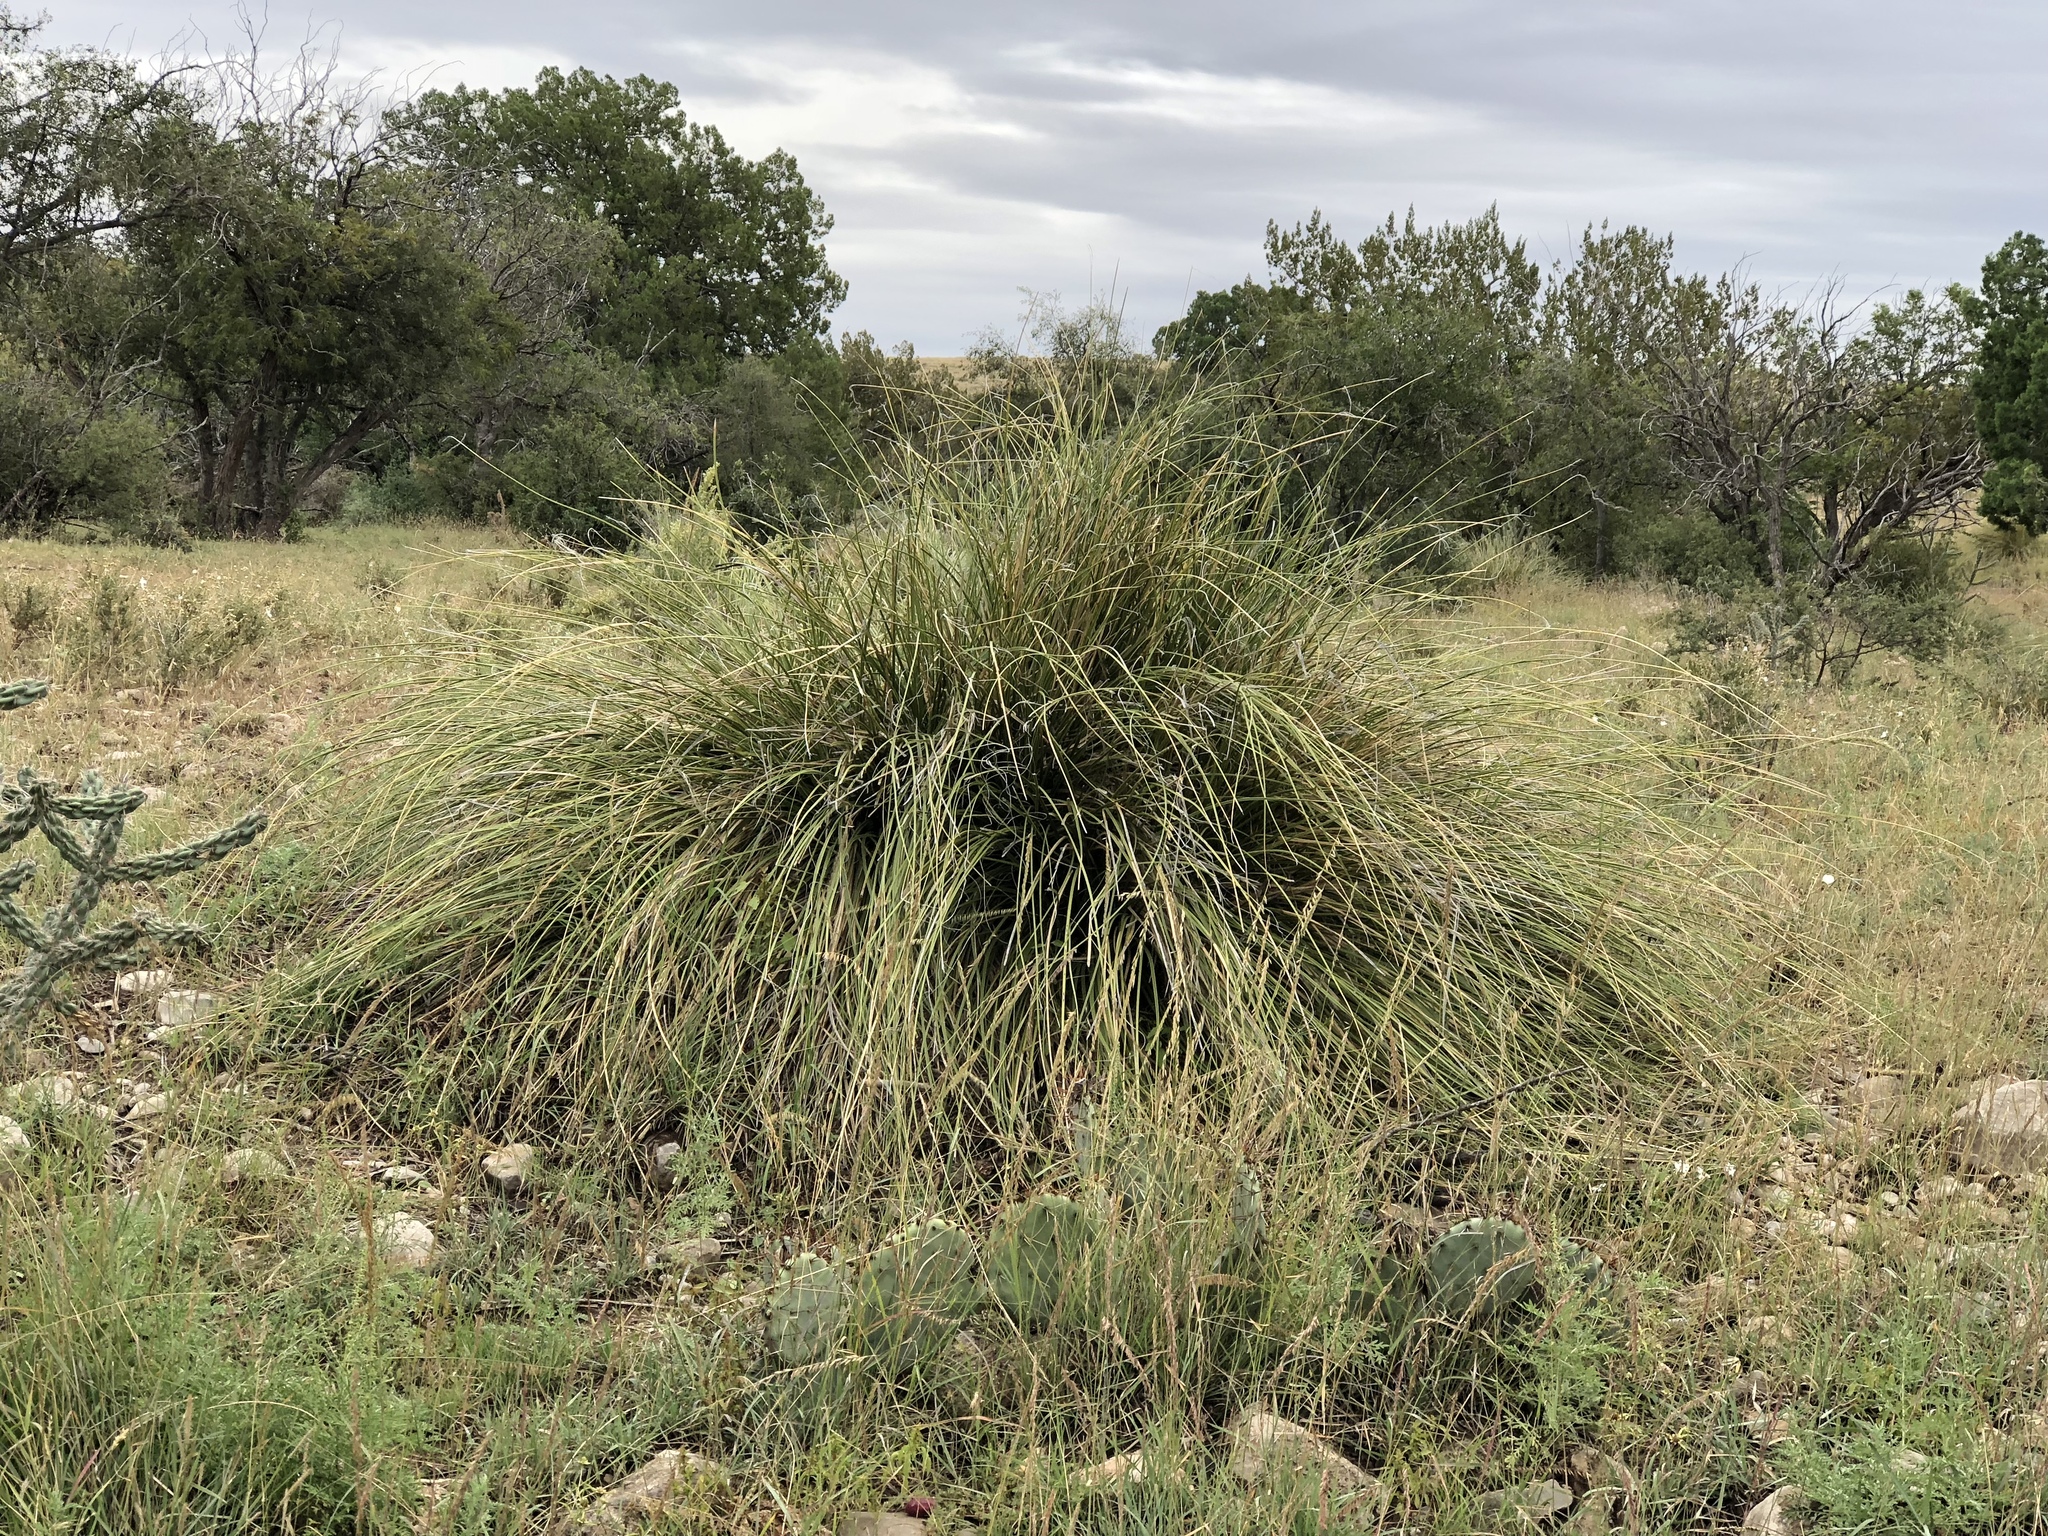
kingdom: Plantae
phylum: Tracheophyta
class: Liliopsida
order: Asparagales
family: Asparagaceae
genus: Nolina
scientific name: Nolina microcarpa
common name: Bear-grass
